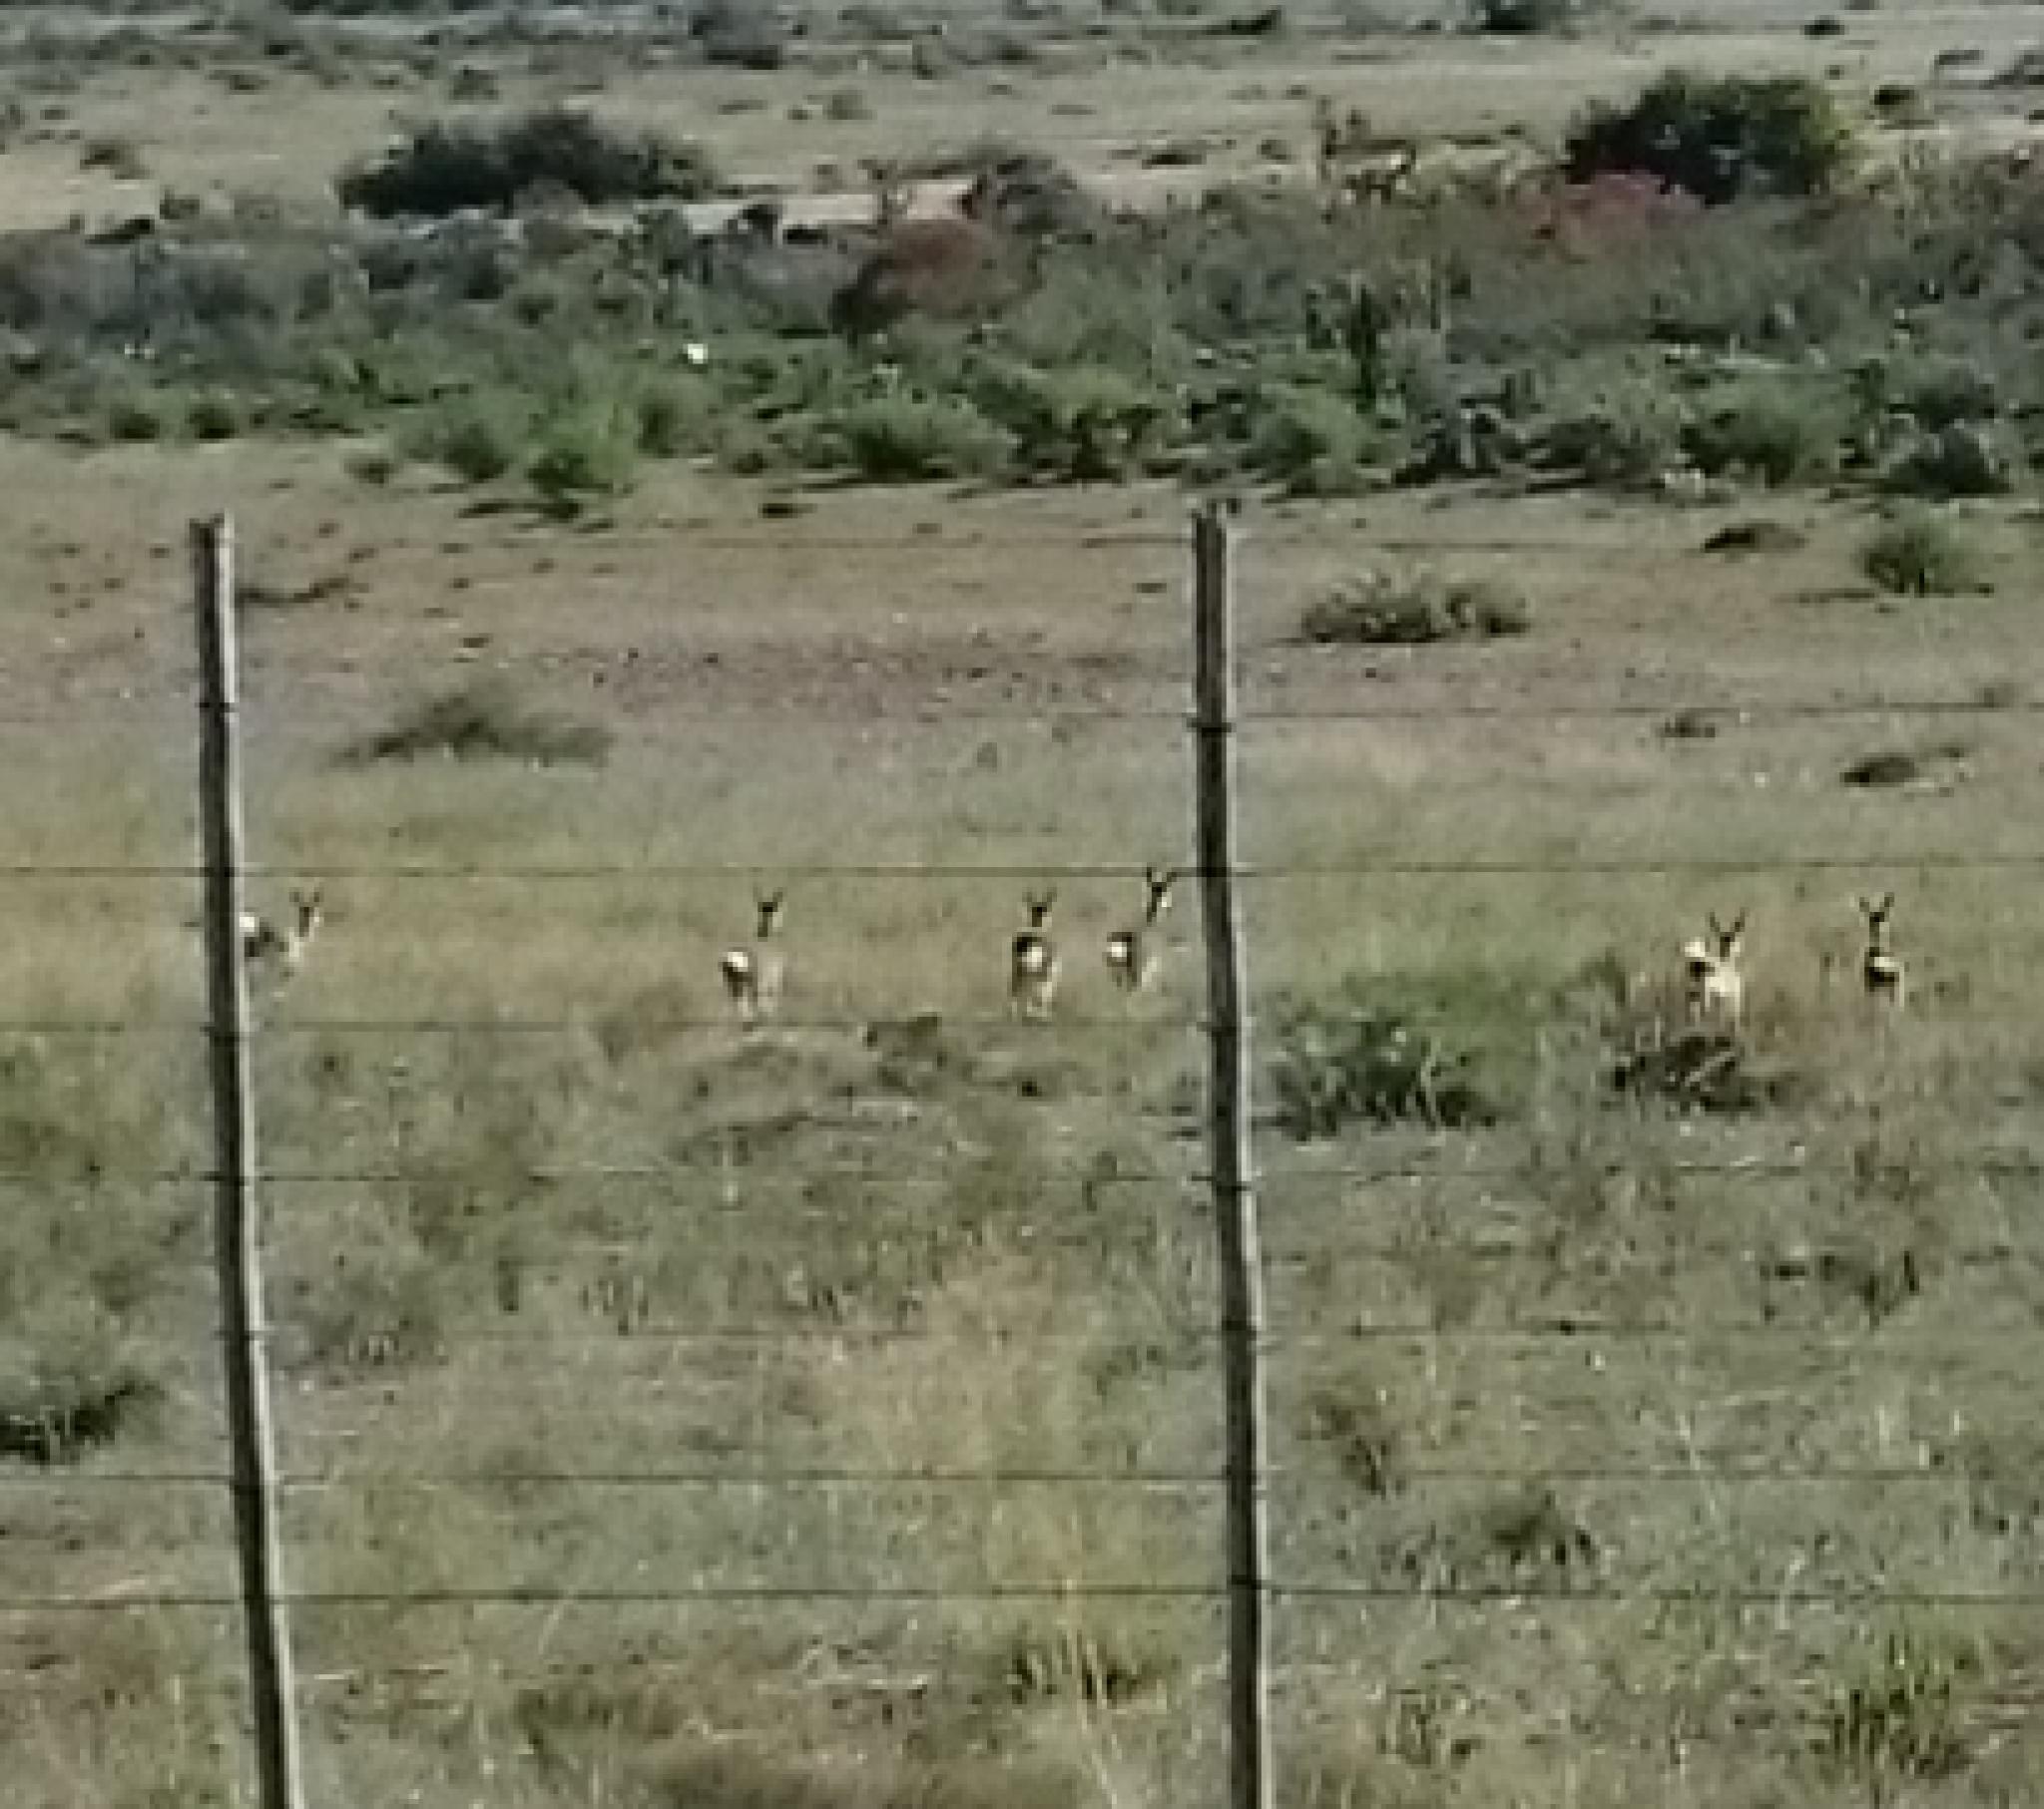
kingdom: Animalia
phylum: Chordata
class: Mammalia
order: Artiodactyla
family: Bovidae
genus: Pelea
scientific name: Pelea capreolus
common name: Common rhebok
